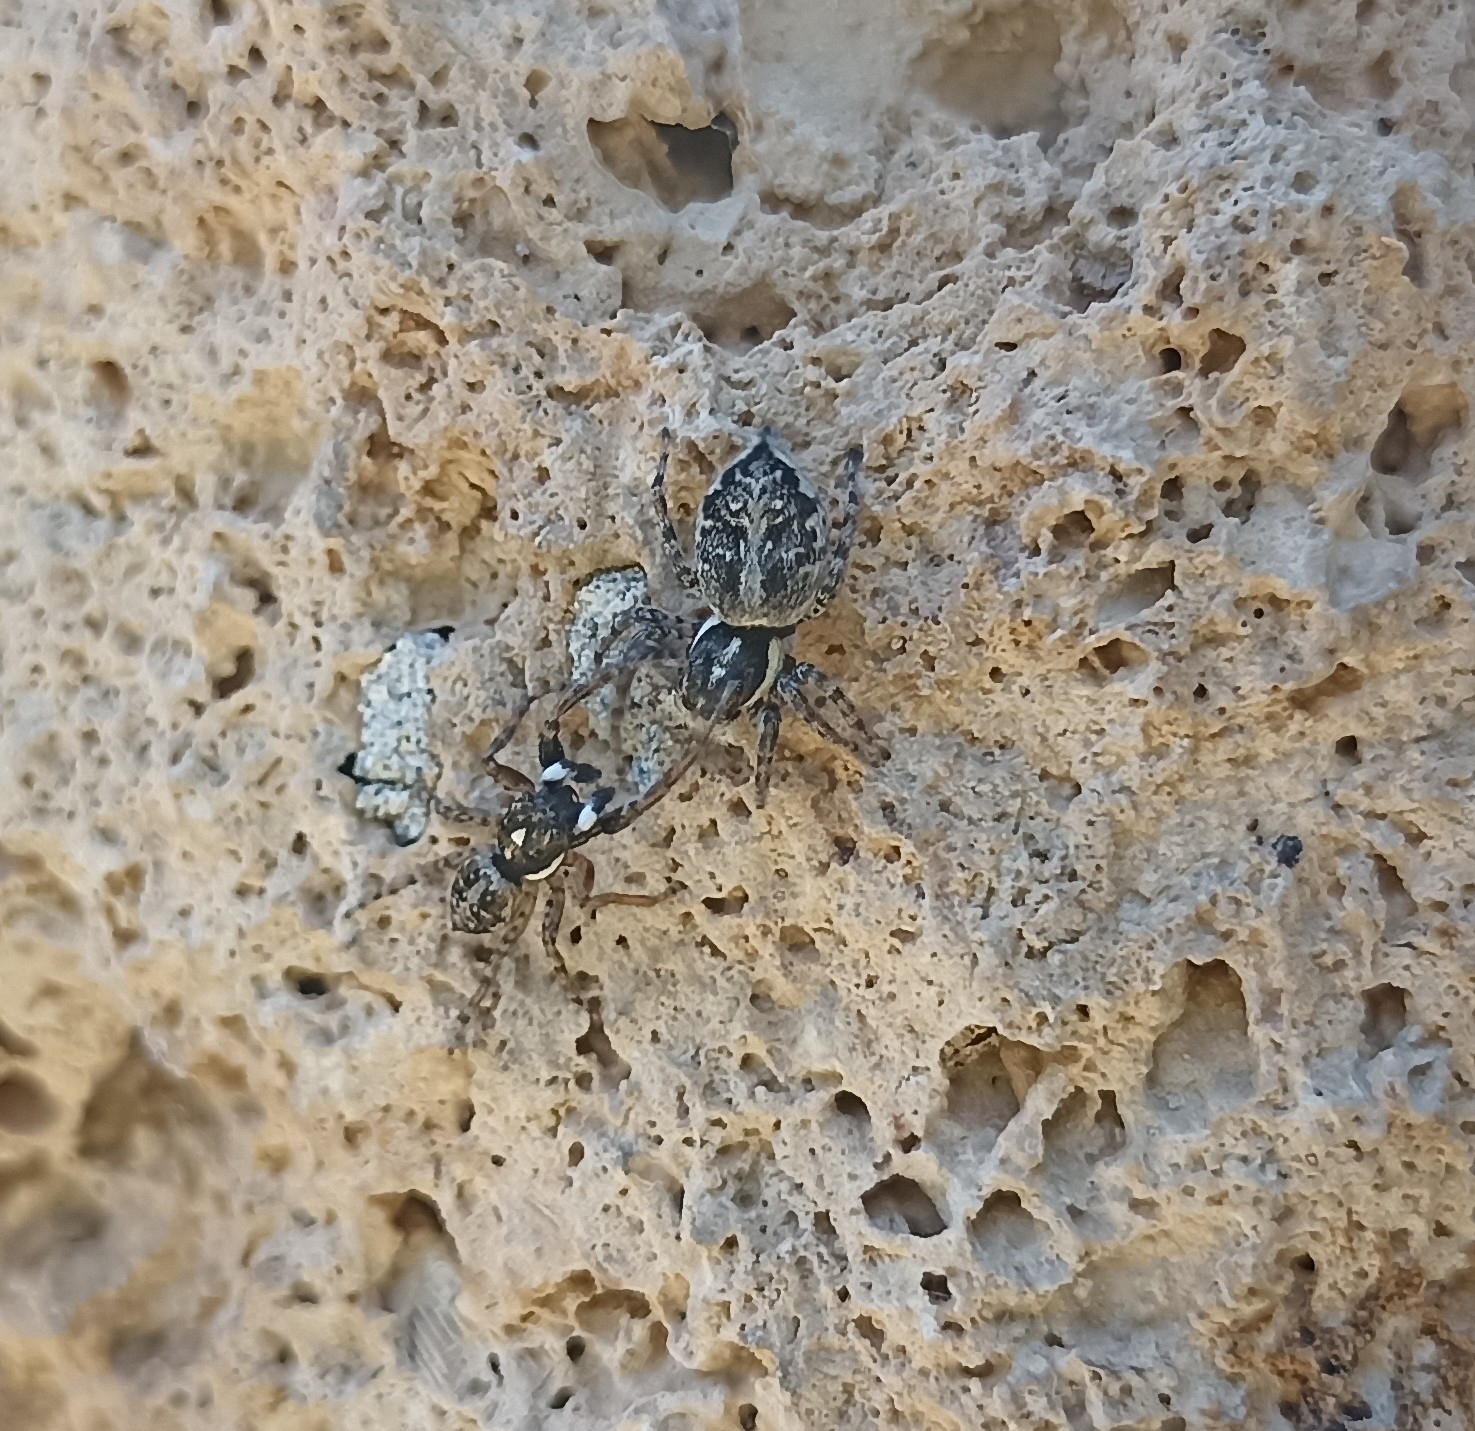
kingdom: Animalia
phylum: Arthropoda
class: Arachnida
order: Araneae
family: Salticidae
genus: Menemerus
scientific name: Menemerus semilimbatus
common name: Jumping spider
